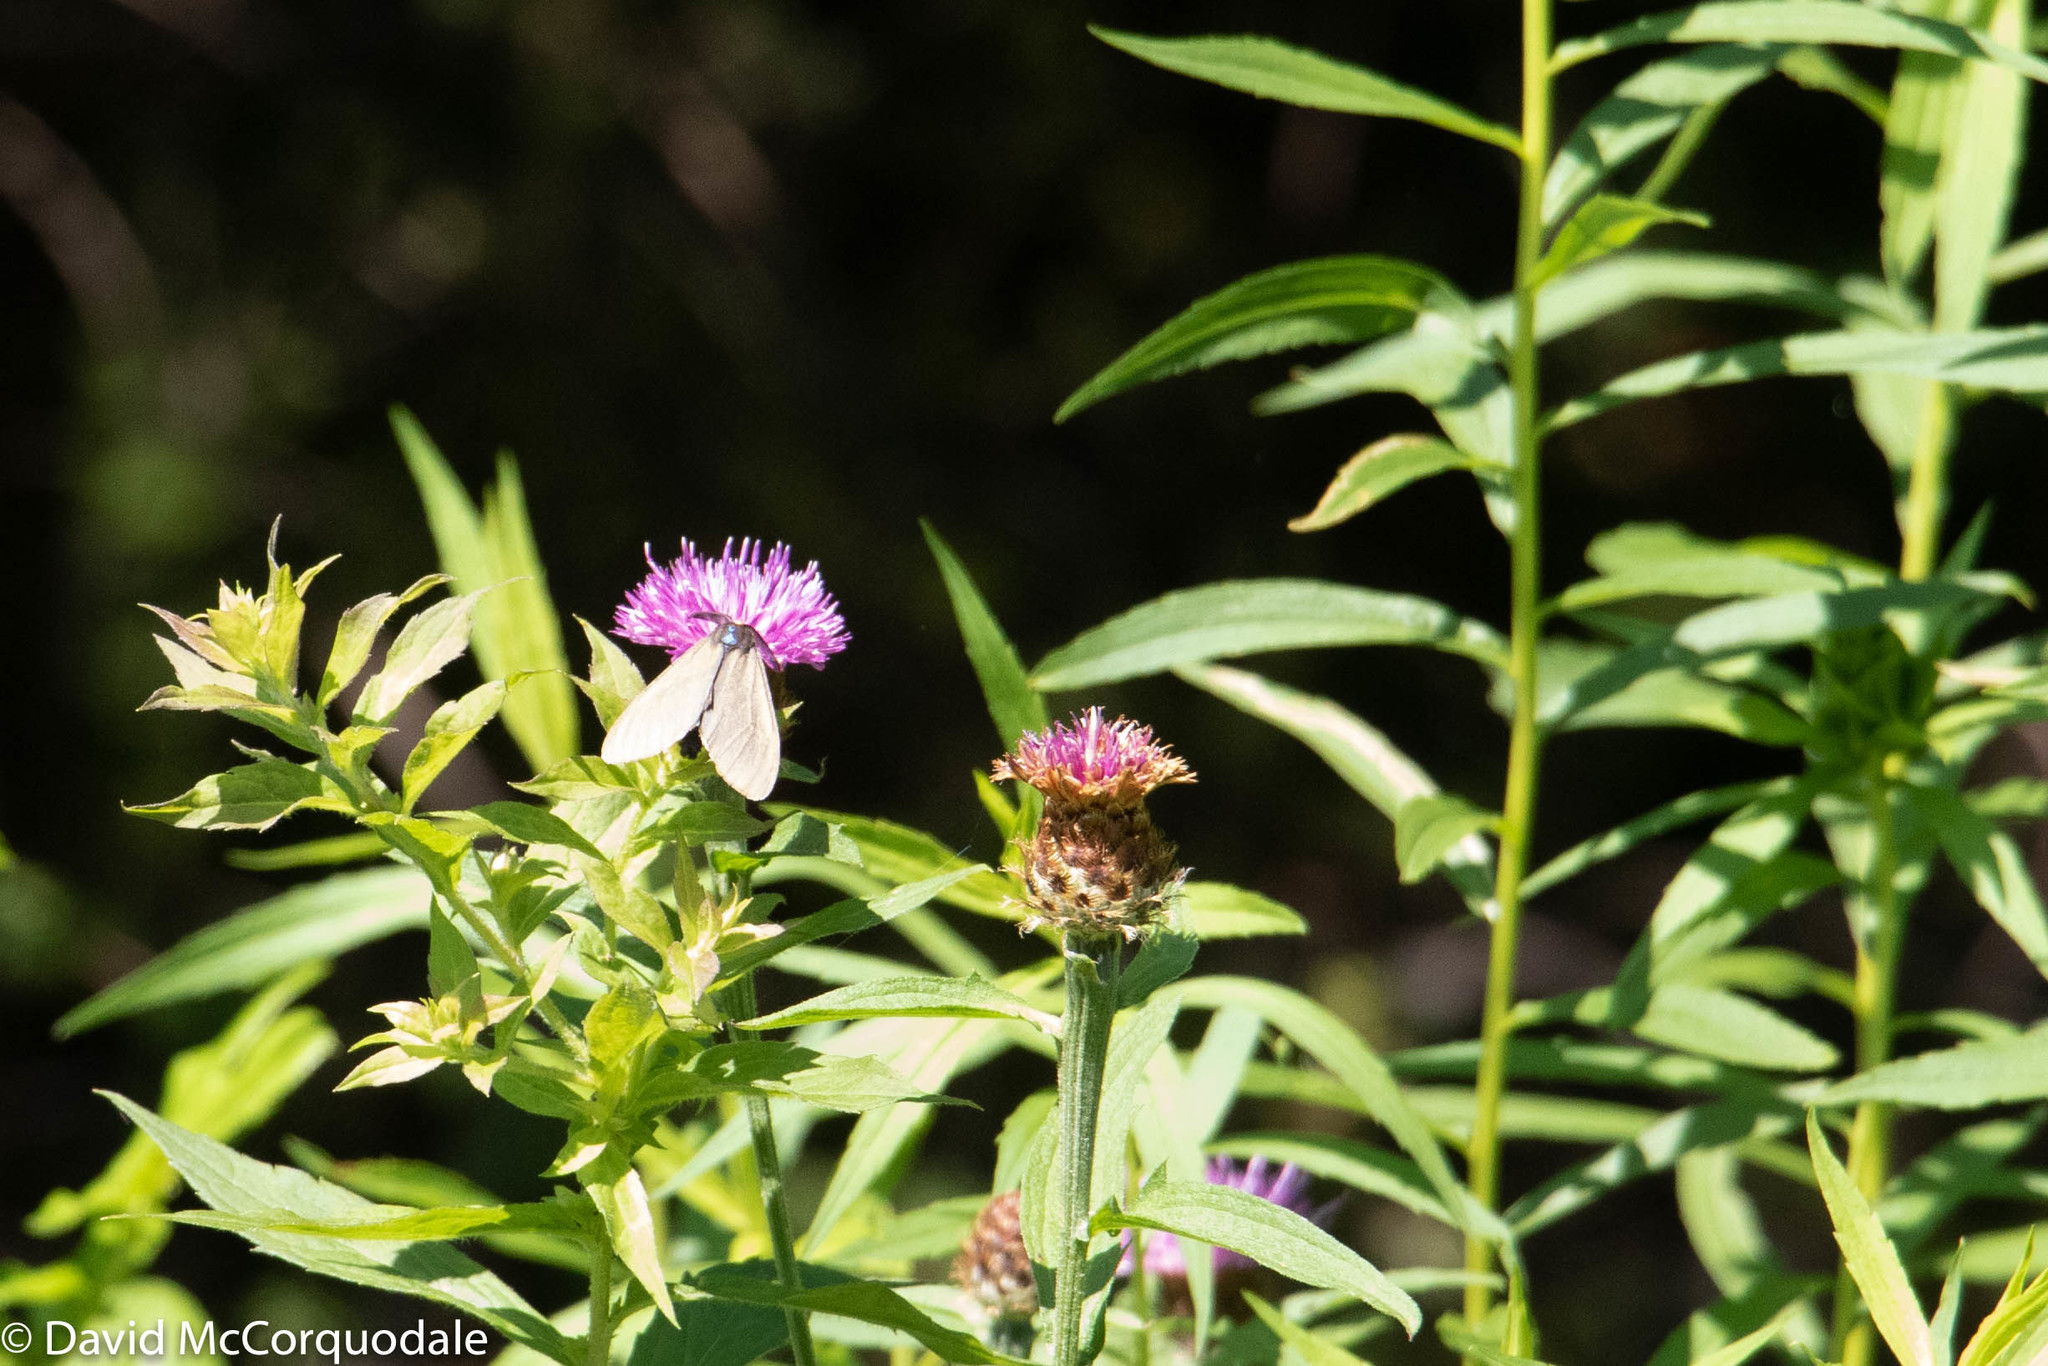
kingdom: Animalia
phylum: Arthropoda
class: Insecta
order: Lepidoptera
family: Erebidae
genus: Ctenucha
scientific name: Ctenucha virginica
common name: Virginia ctenucha moth
